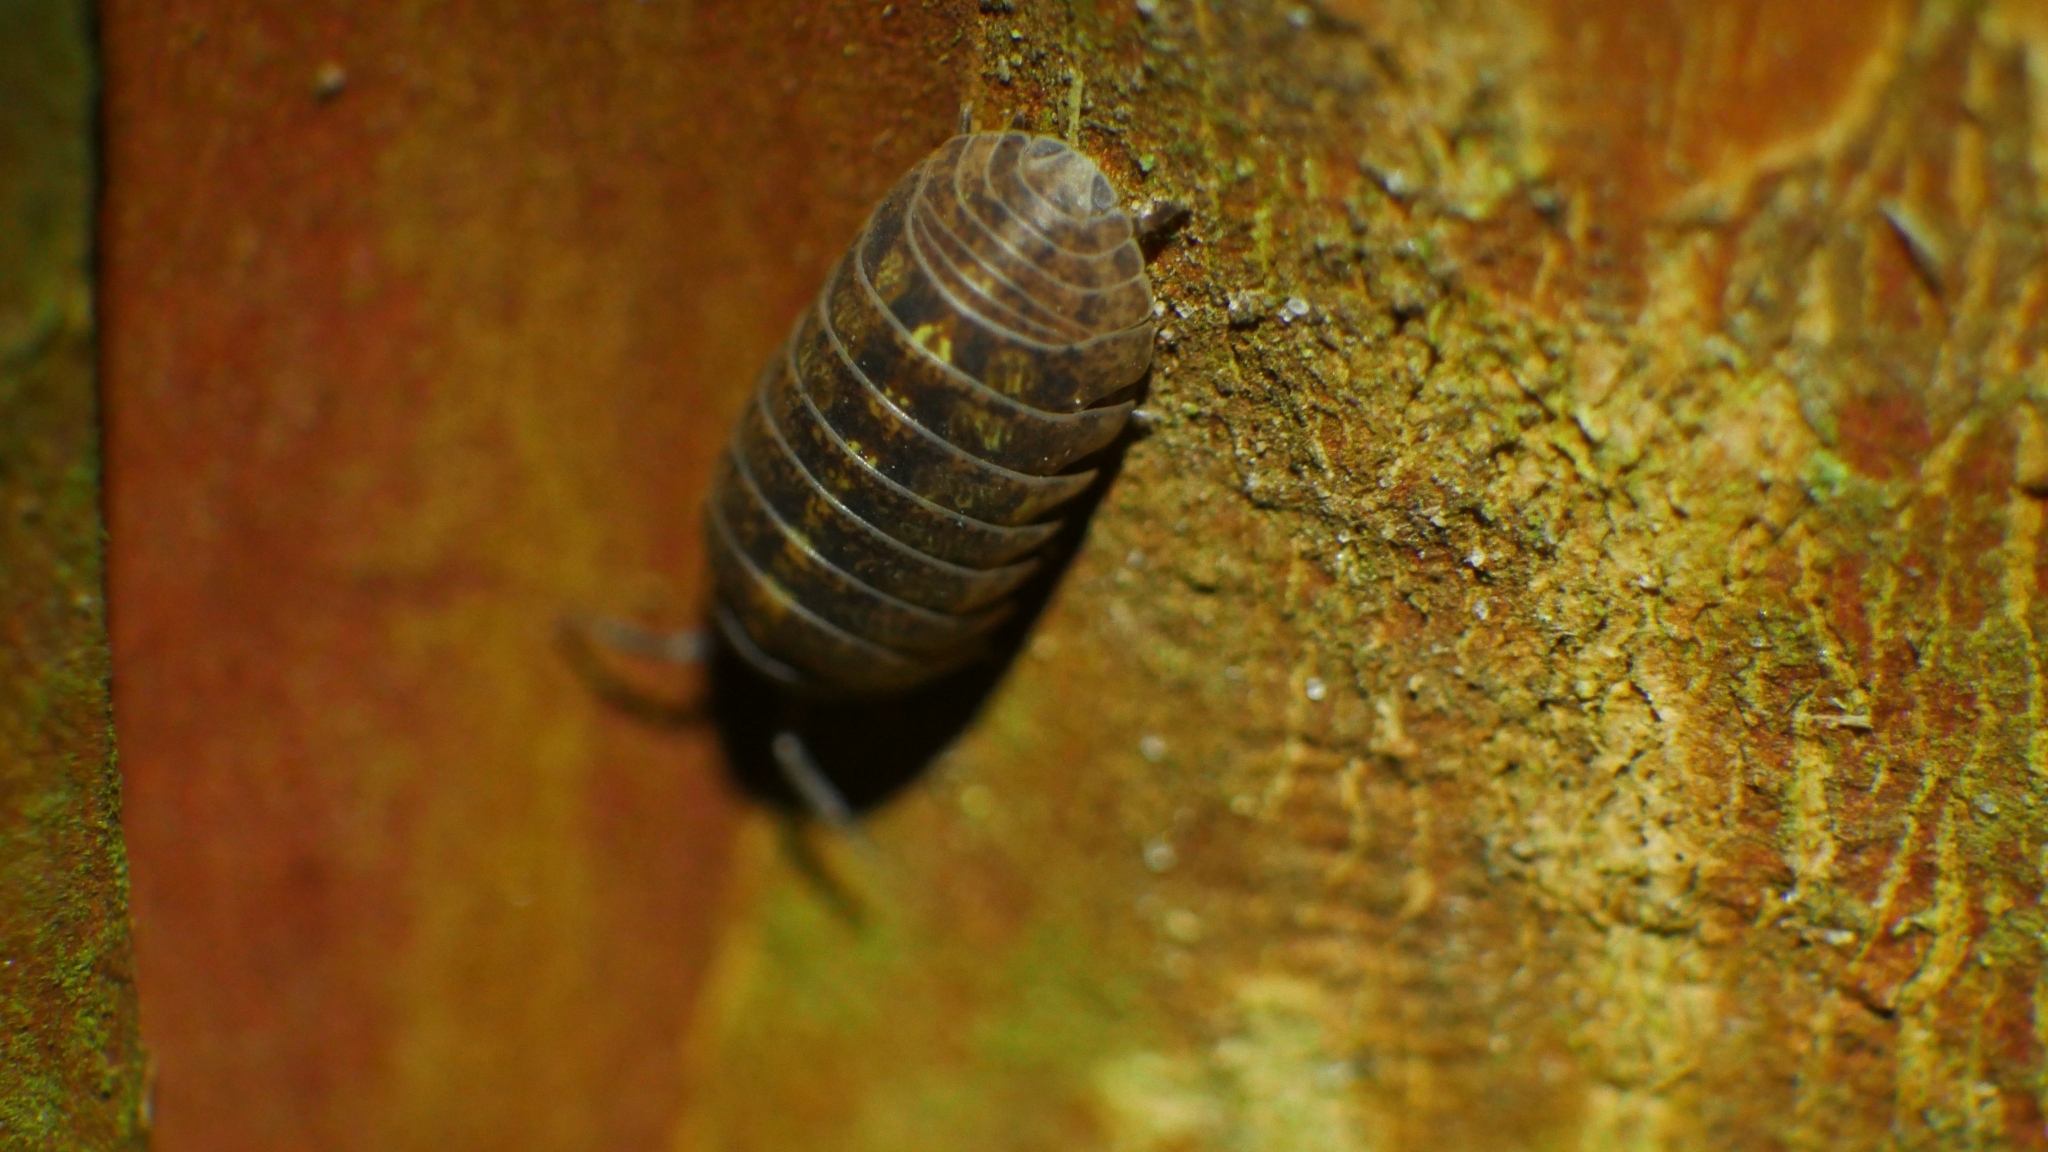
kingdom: Animalia
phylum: Arthropoda
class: Malacostraca
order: Isopoda
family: Armadillidiidae
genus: Armadillidium
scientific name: Armadillidium vulgare
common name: Common pill woodlouse
